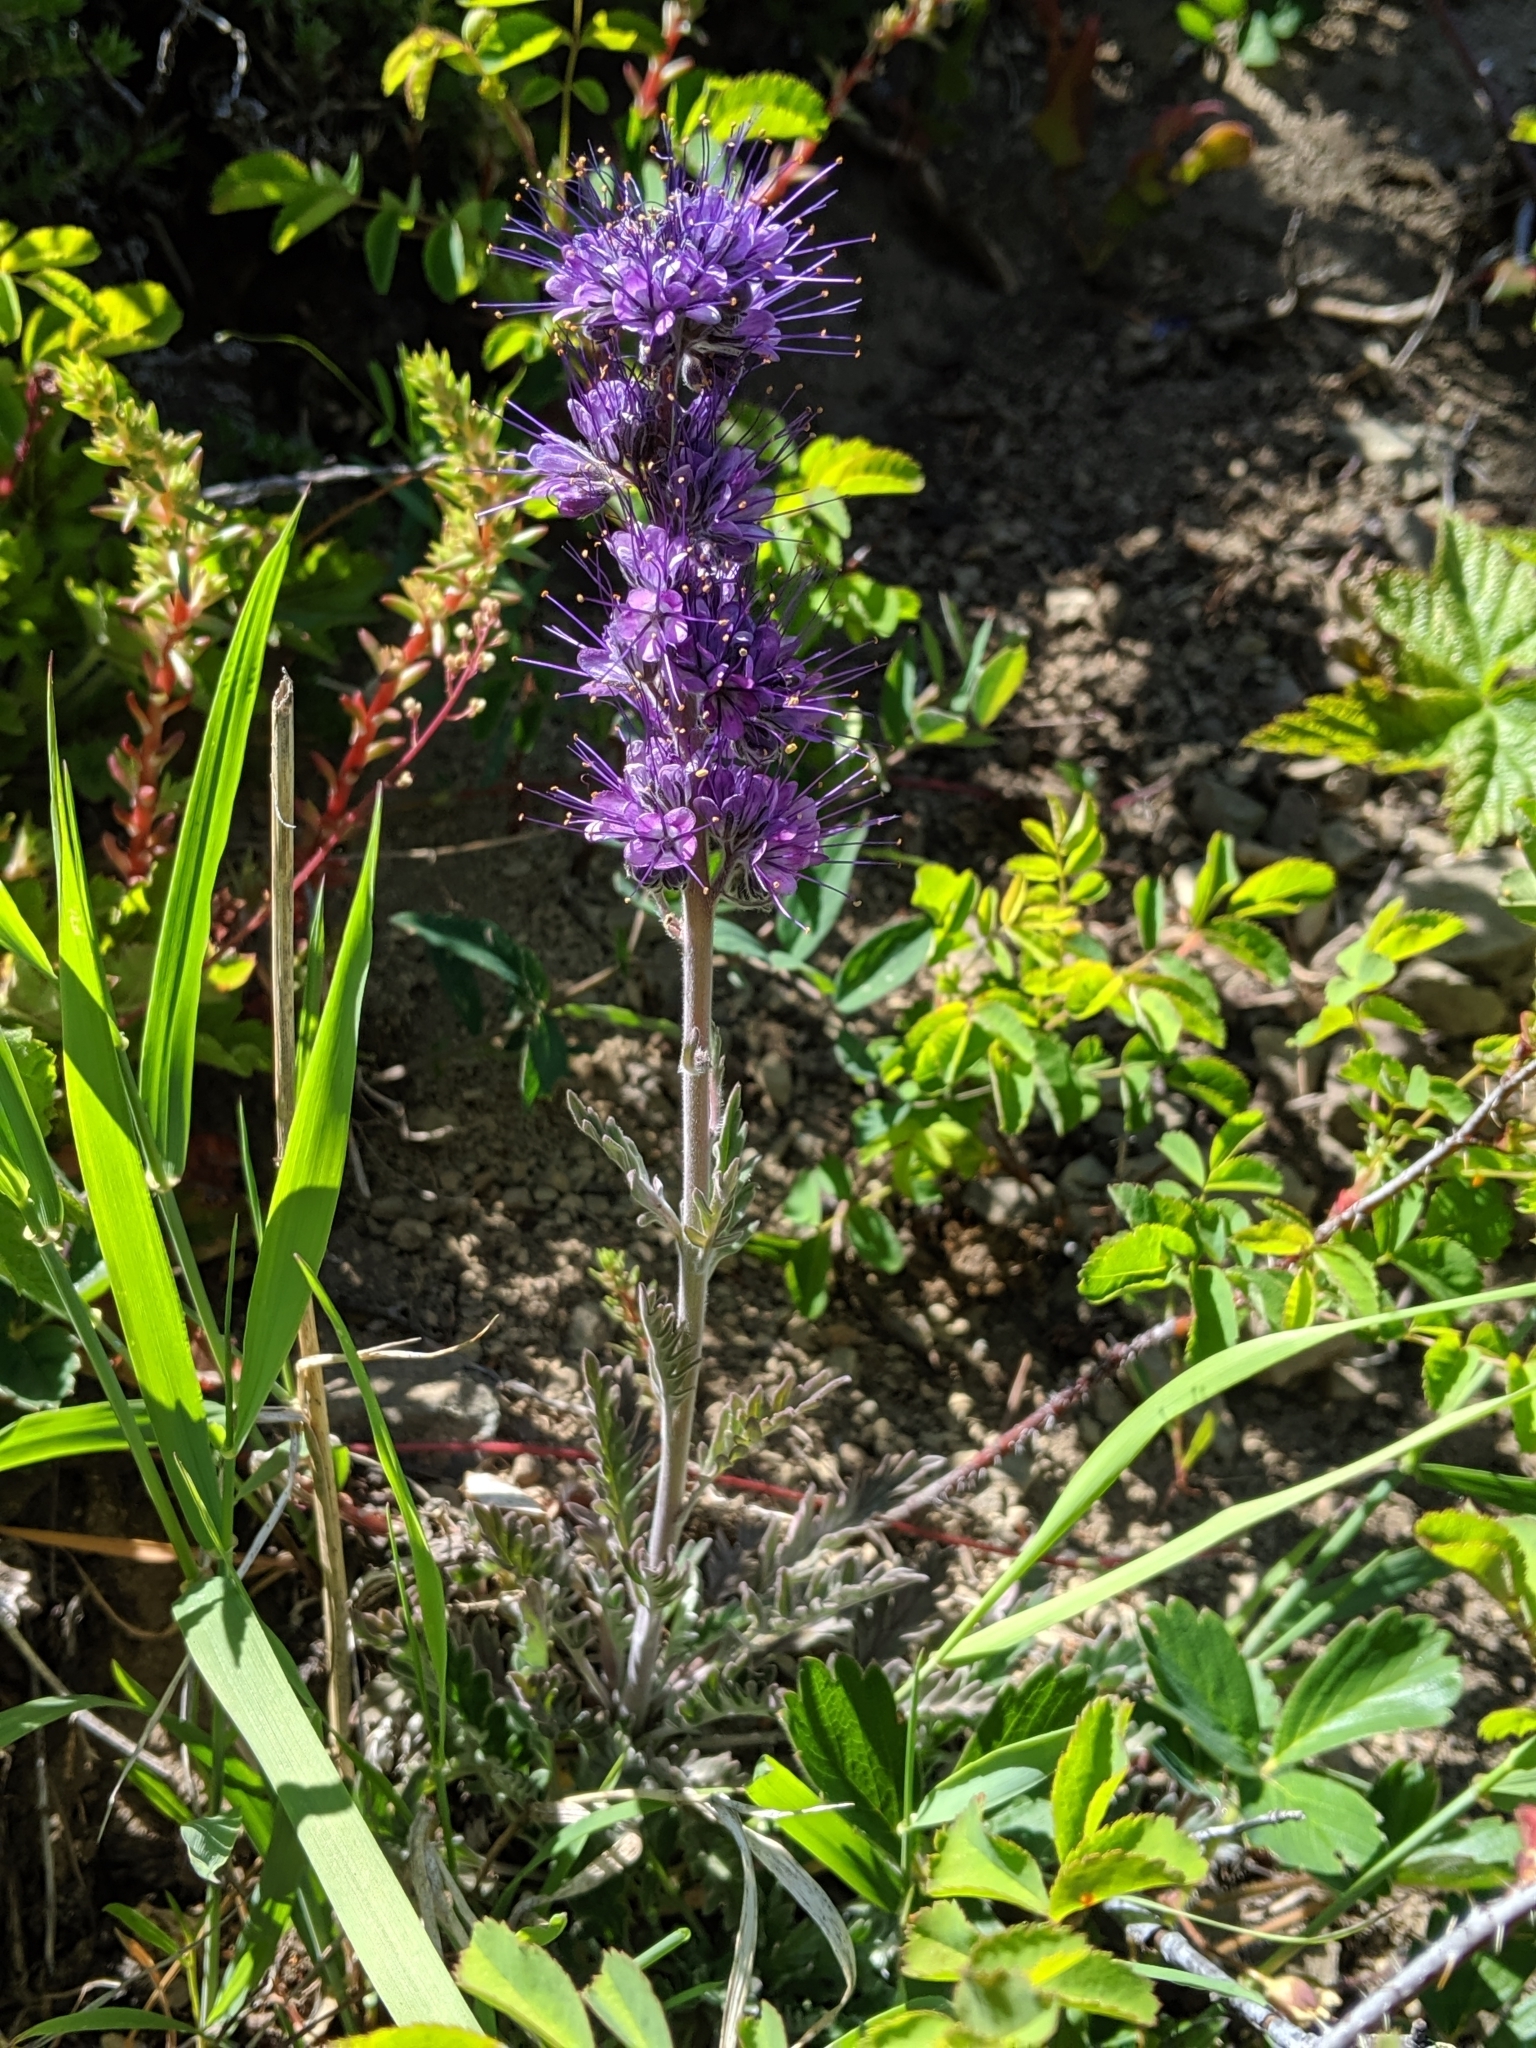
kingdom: Plantae
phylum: Tracheophyta
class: Magnoliopsida
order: Boraginales
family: Hydrophyllaceae
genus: Phacelia
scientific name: Phacelia sericea
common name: Silky phacelia
